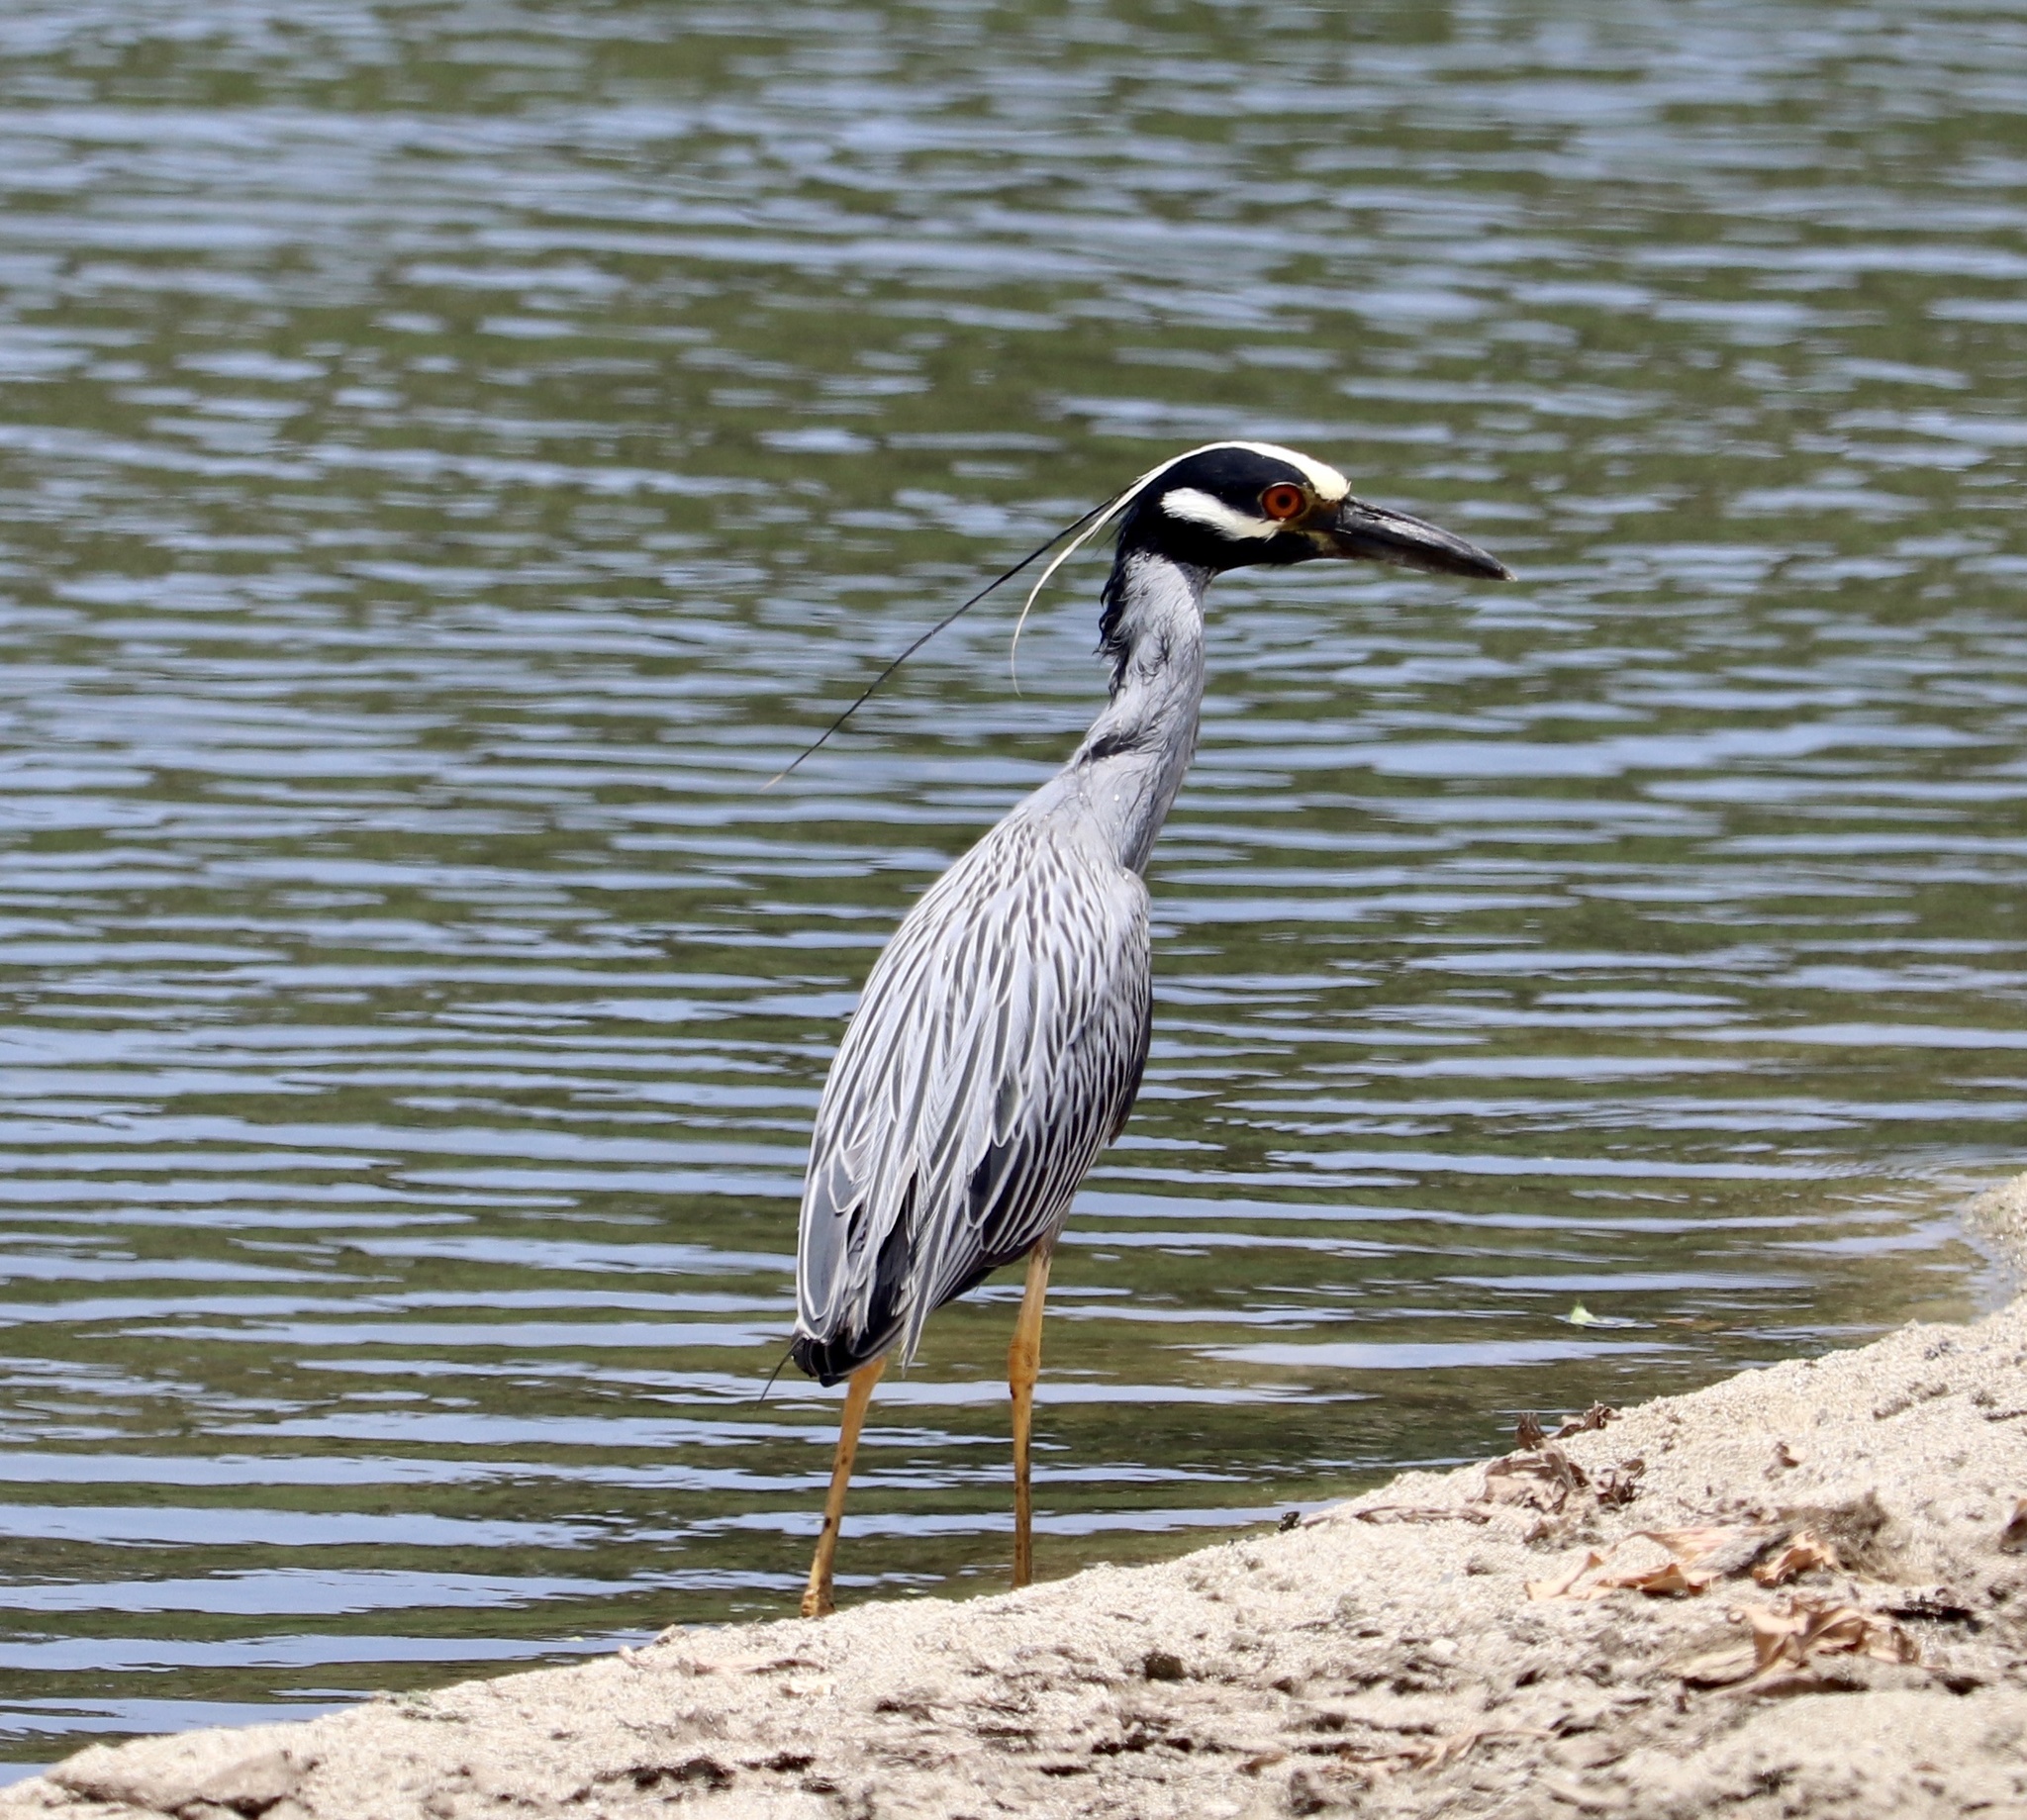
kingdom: Animalia
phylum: Chordata
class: Aves
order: Pelecaniformes
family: Ardeidae
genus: Nyctanassa
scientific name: Nyctanassa violacea
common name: Yellow-crowned night heron
